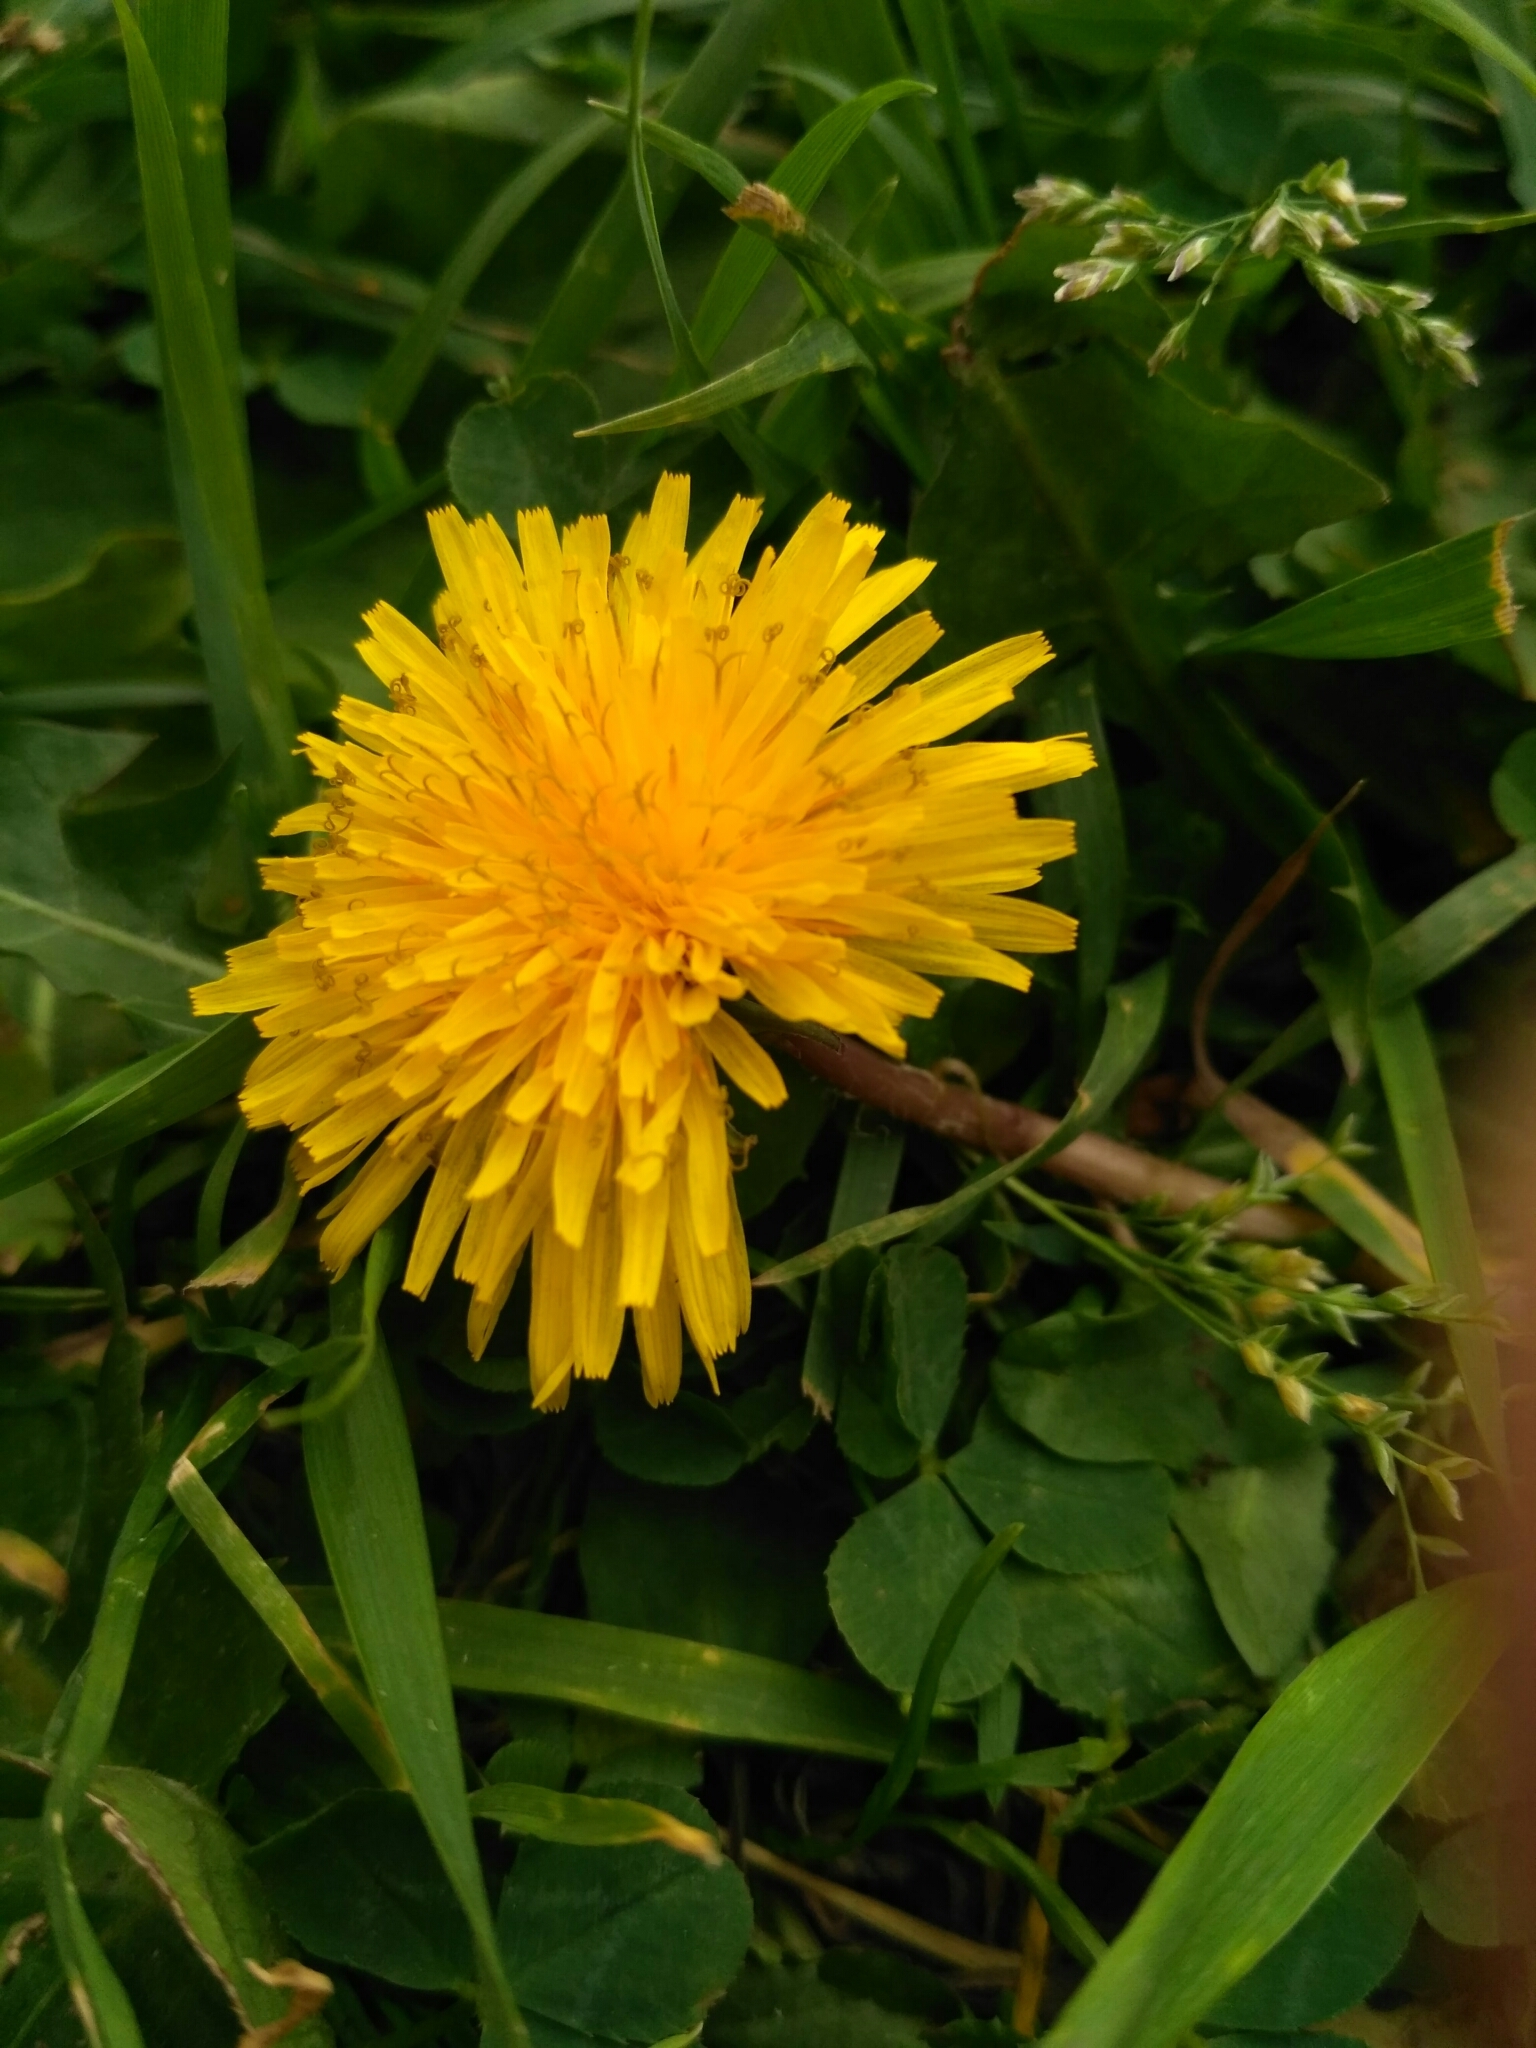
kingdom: Plantae
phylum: Tracheophyta
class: Magnoliopsida
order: Asterales
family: Asteraceae
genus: Taraxacum
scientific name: Taraxacum officinale
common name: Common dandelion
